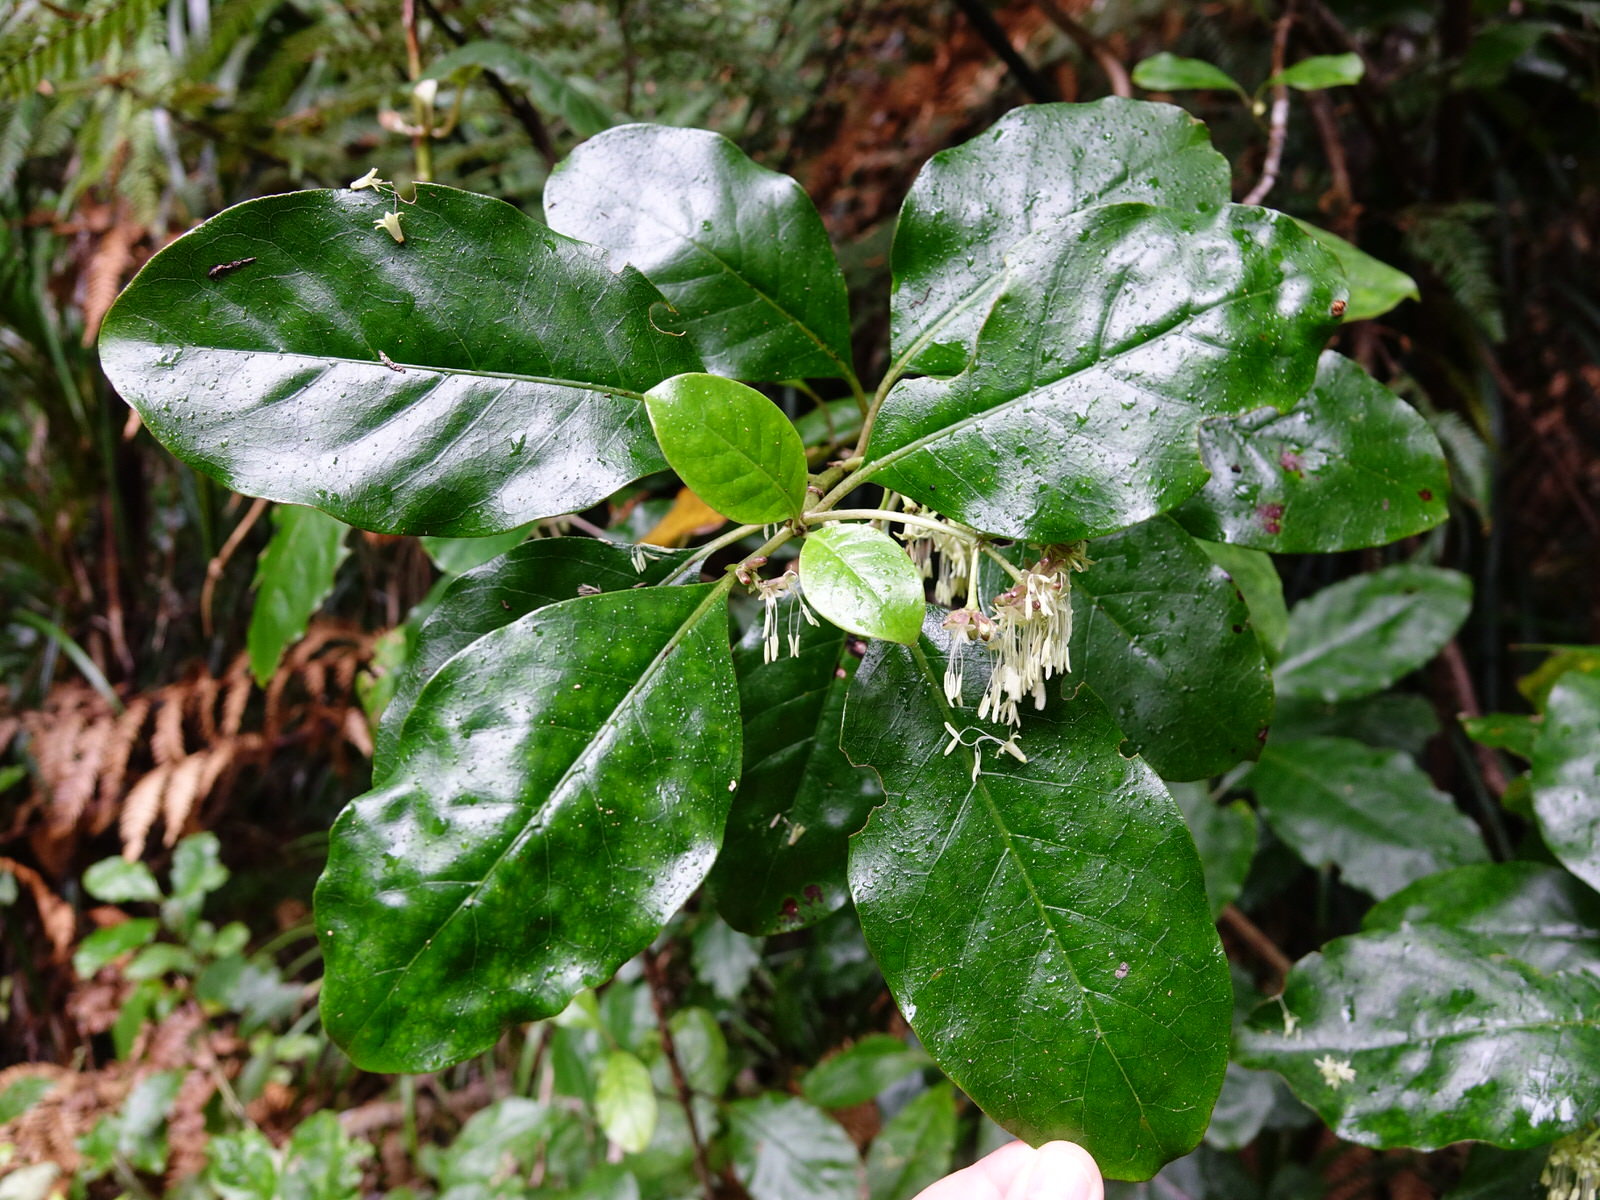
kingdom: Plantae
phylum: Tracheophyta
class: Magnoliopsida
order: Gentianales
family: Rubiaceae
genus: Coprosma
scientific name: Coprosma autumnalis
